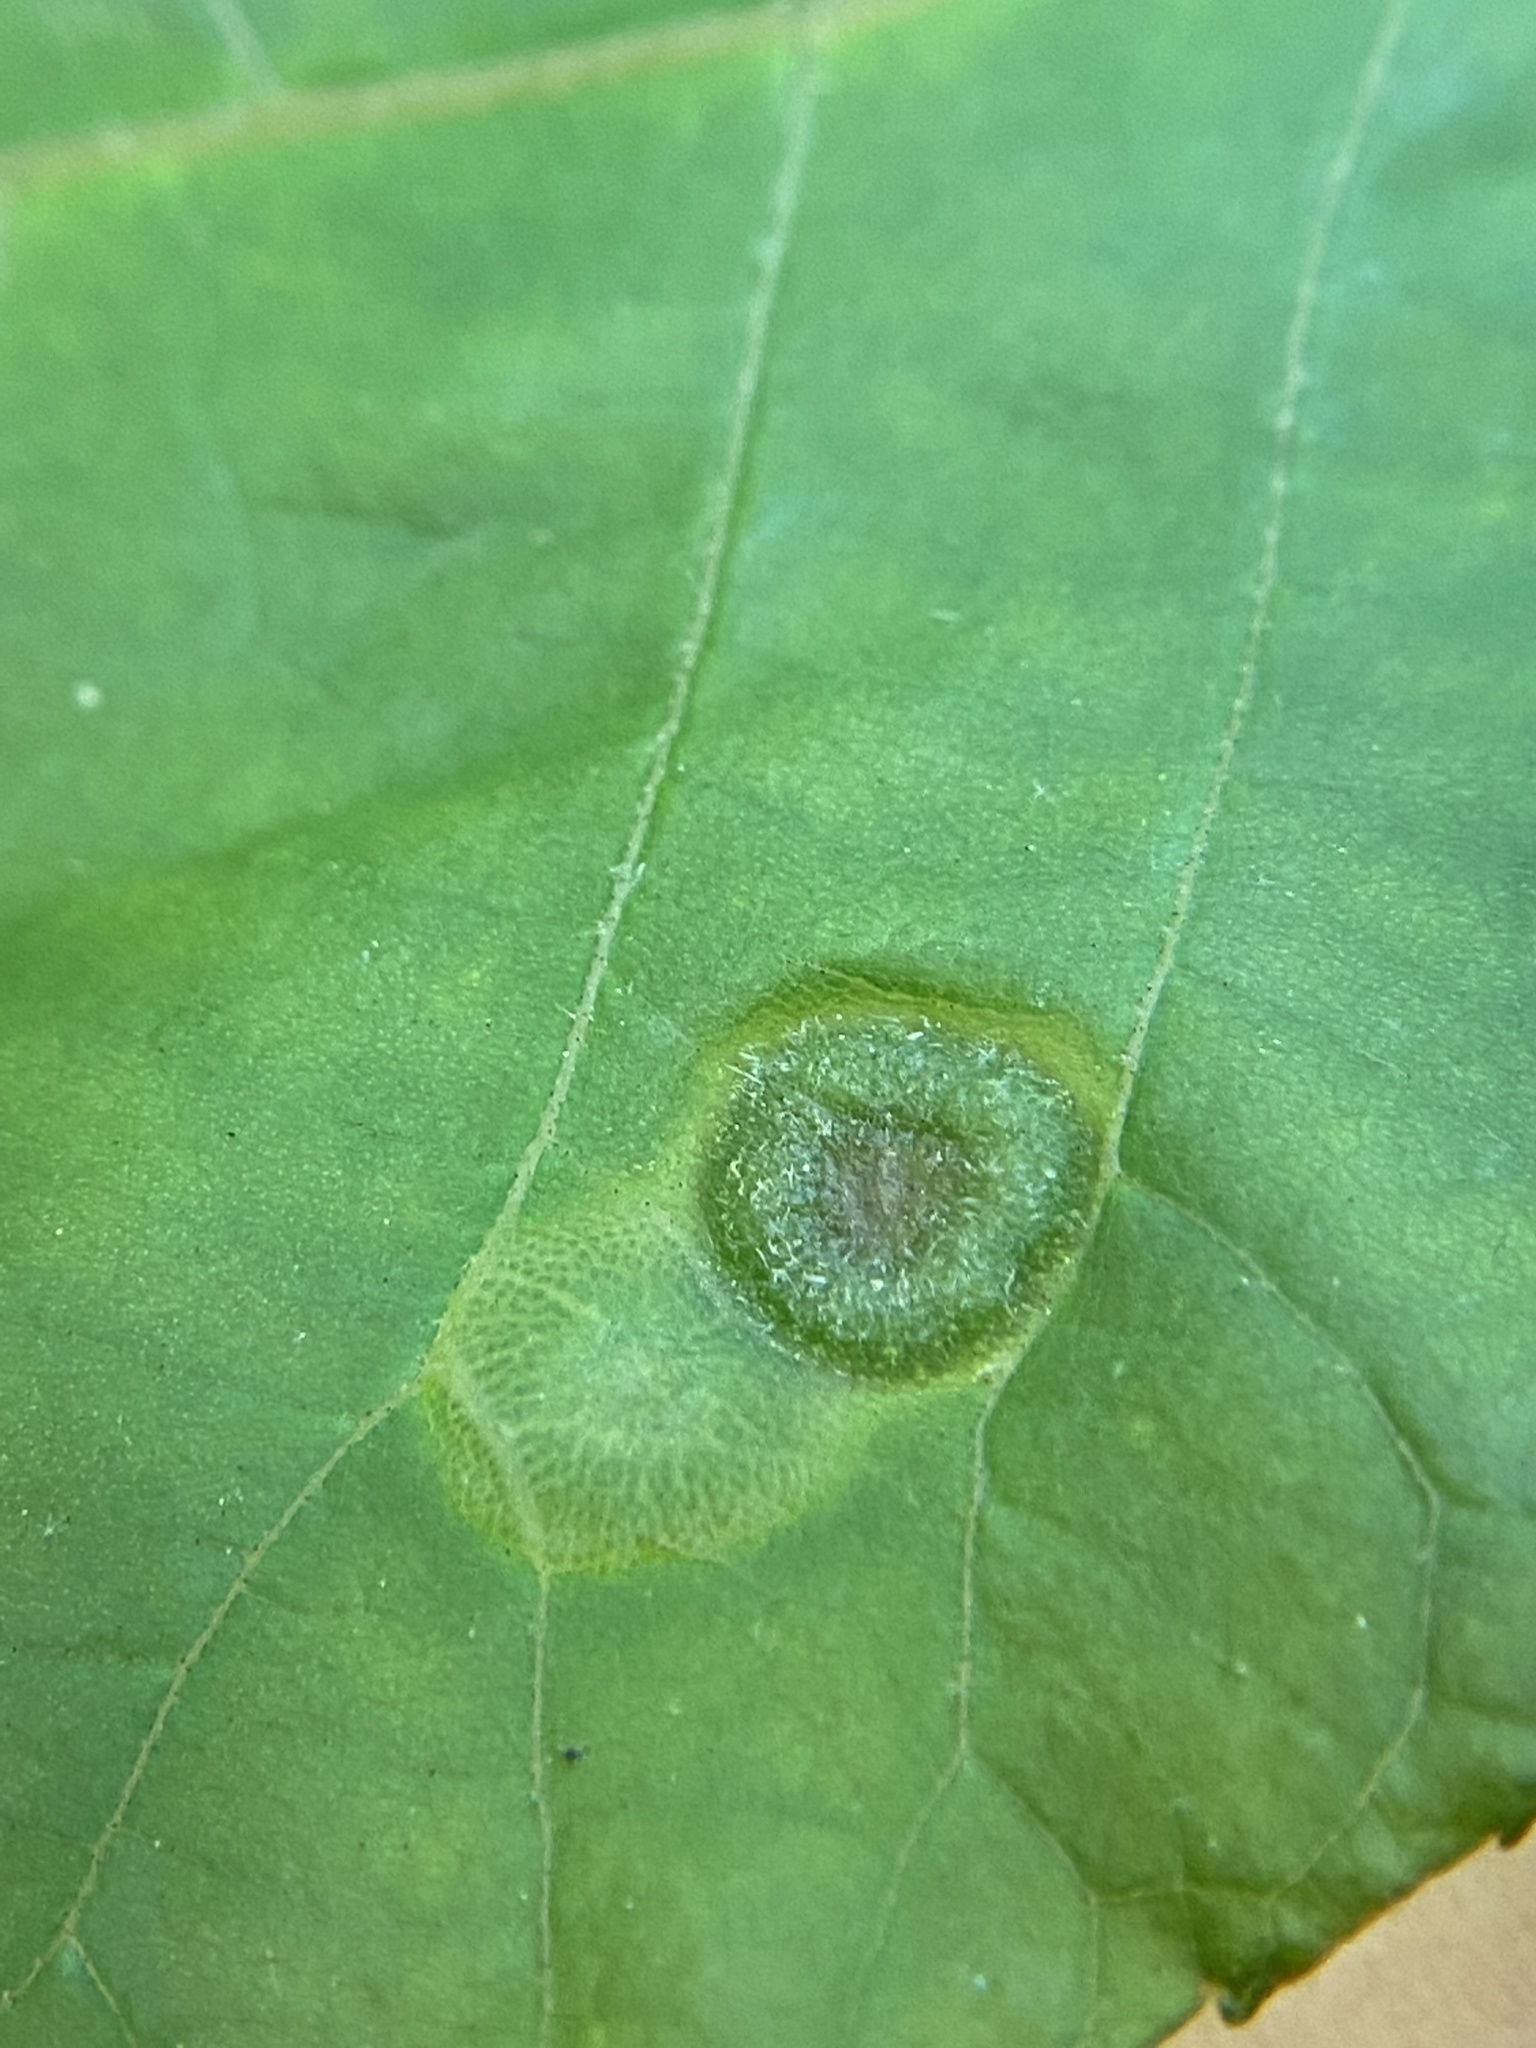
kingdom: Animalia
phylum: Arthropoda
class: Insecta
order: Hemiptera
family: Phylloxeridae
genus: Phylloxera
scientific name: Phylloxera pilosula
